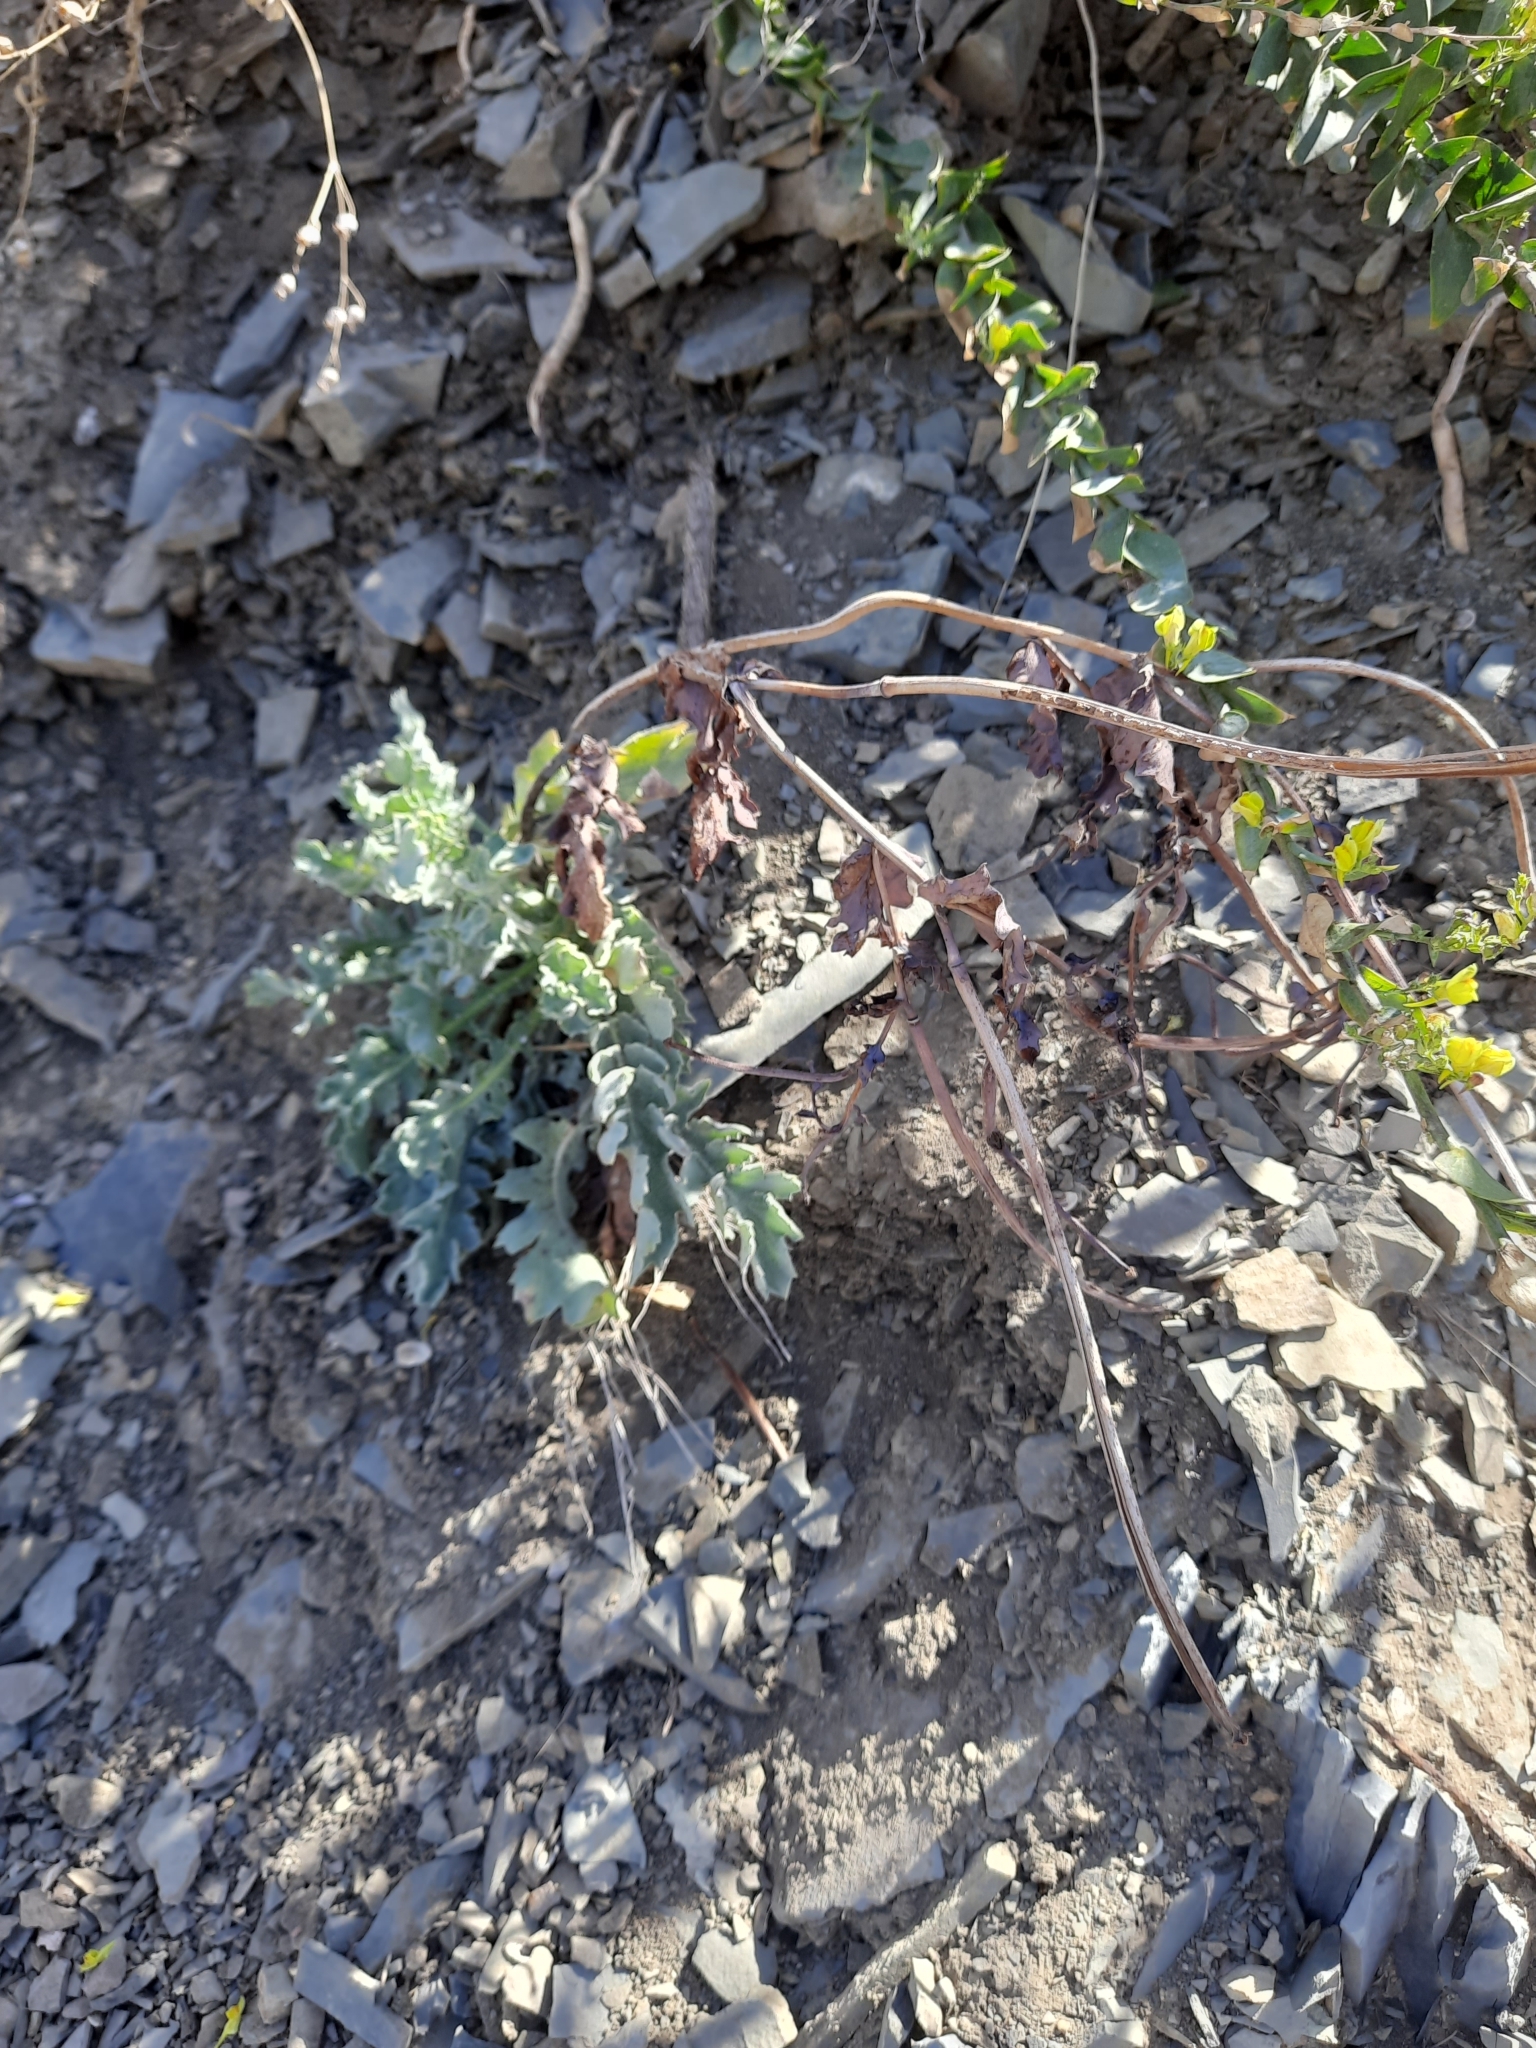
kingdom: Plantae
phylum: Tracheophyta
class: Magnoliopsida
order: Ranunculales
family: Papaveraceae
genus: Glaucium
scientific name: Glaucium flavum
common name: Yellow horned-poppy
